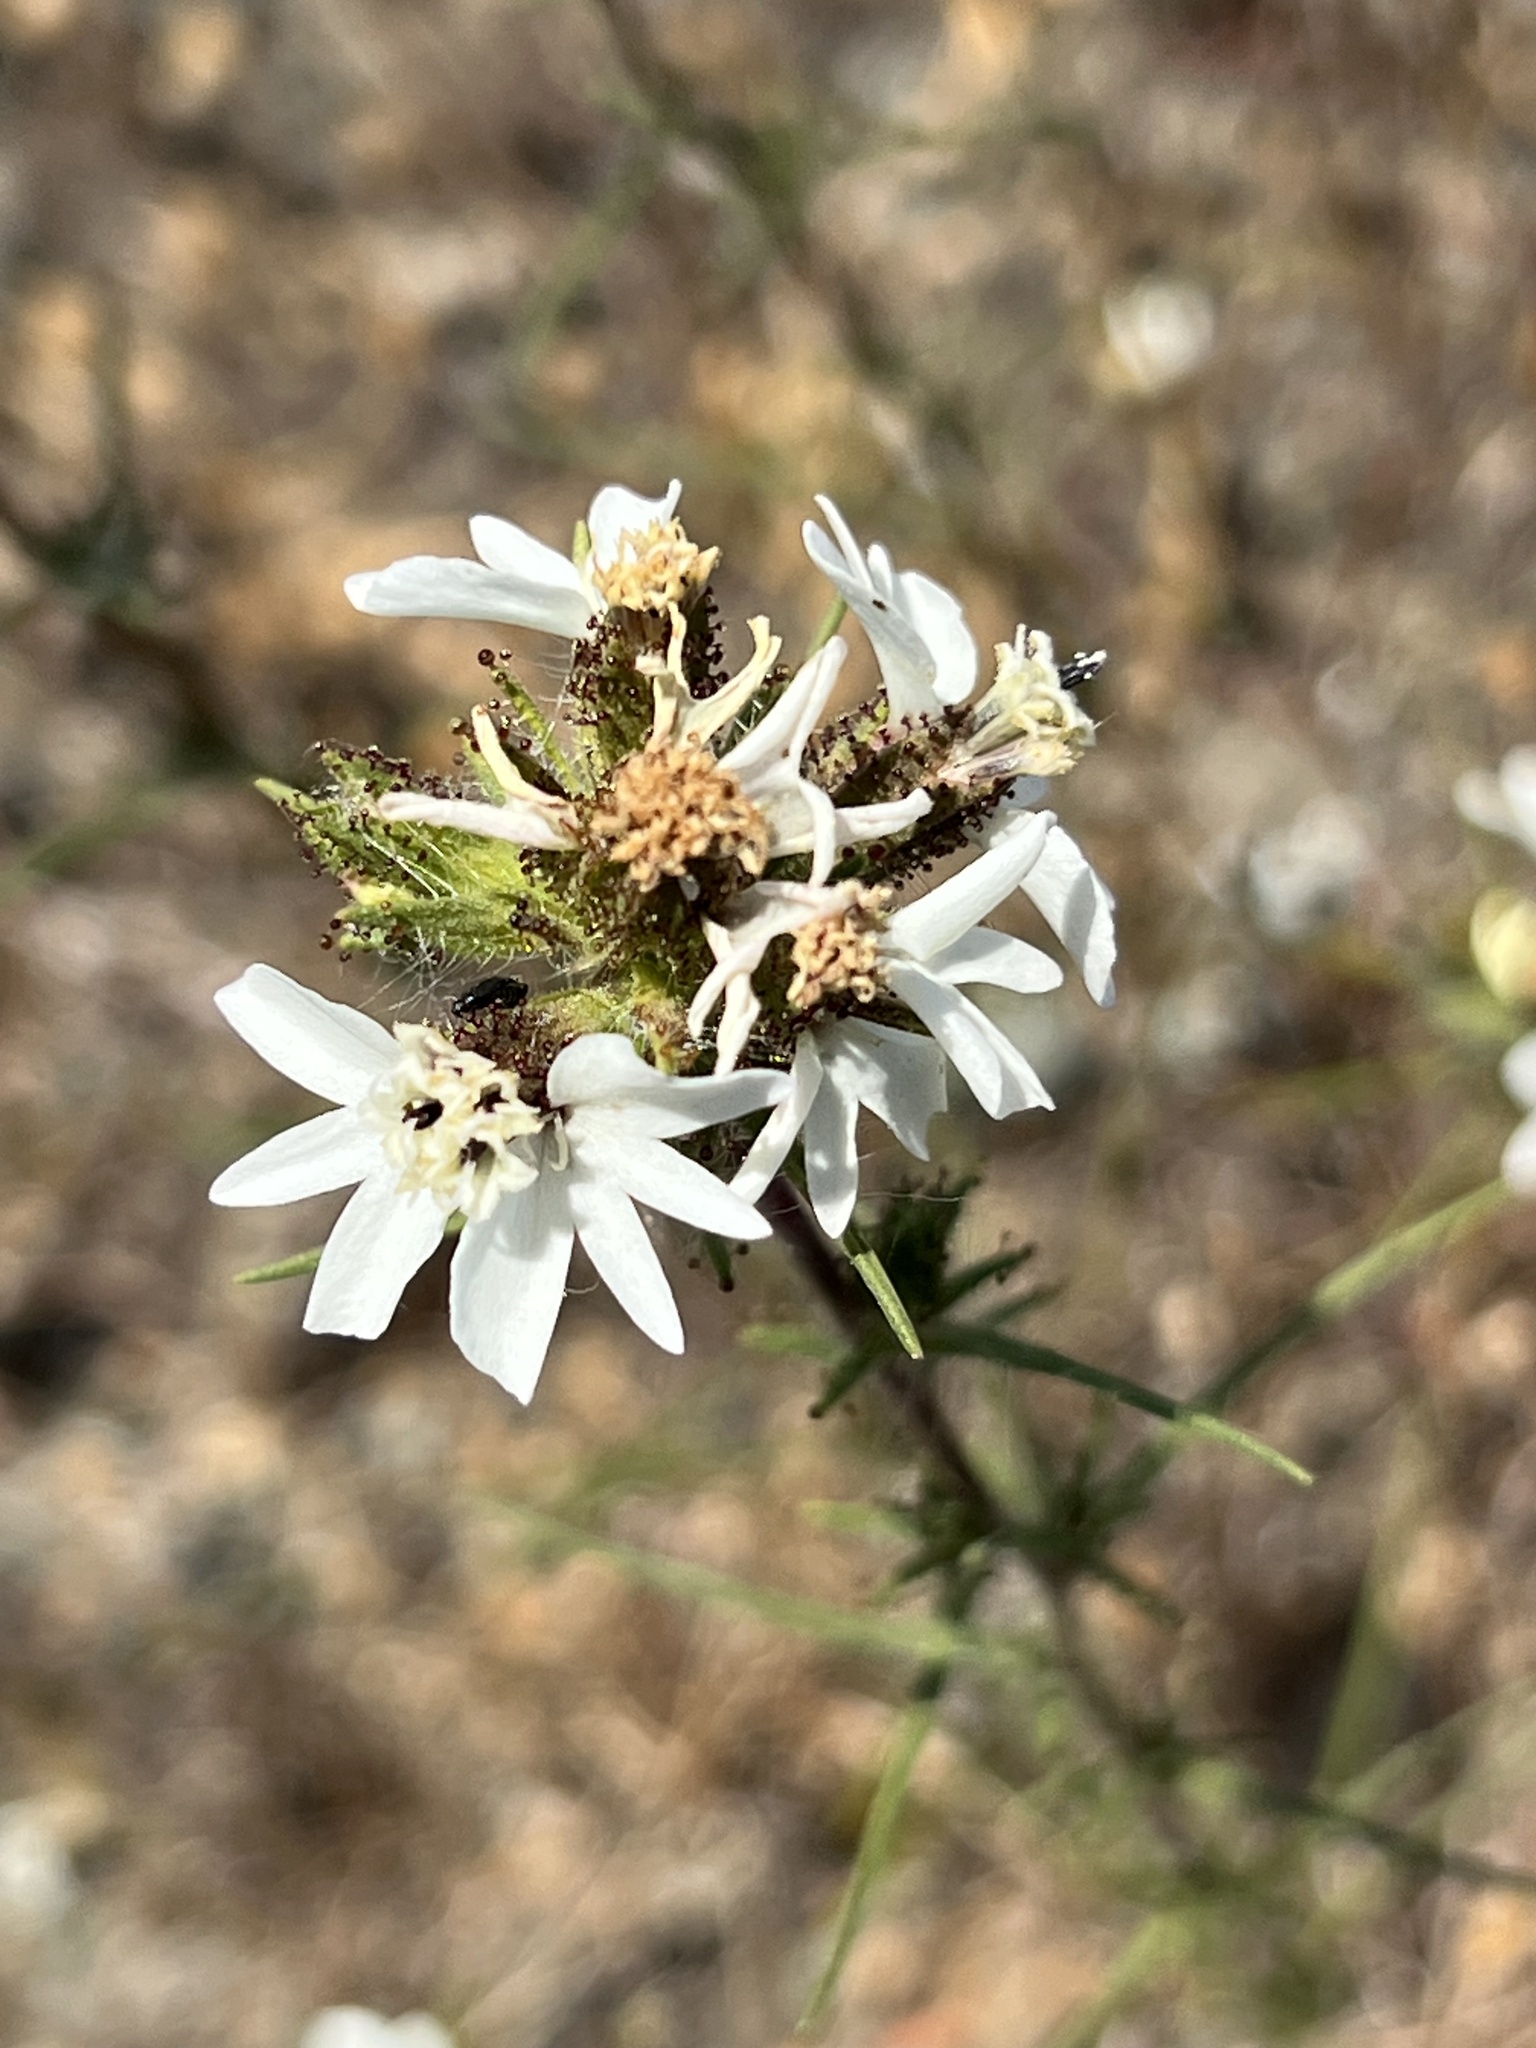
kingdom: Plantae
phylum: Tracheophyta
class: Magnoliopsida
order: Asterales
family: Asteraceae
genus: Calycadenia
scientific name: Calycadenia multiglandulosa
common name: Sticky calycadenia
